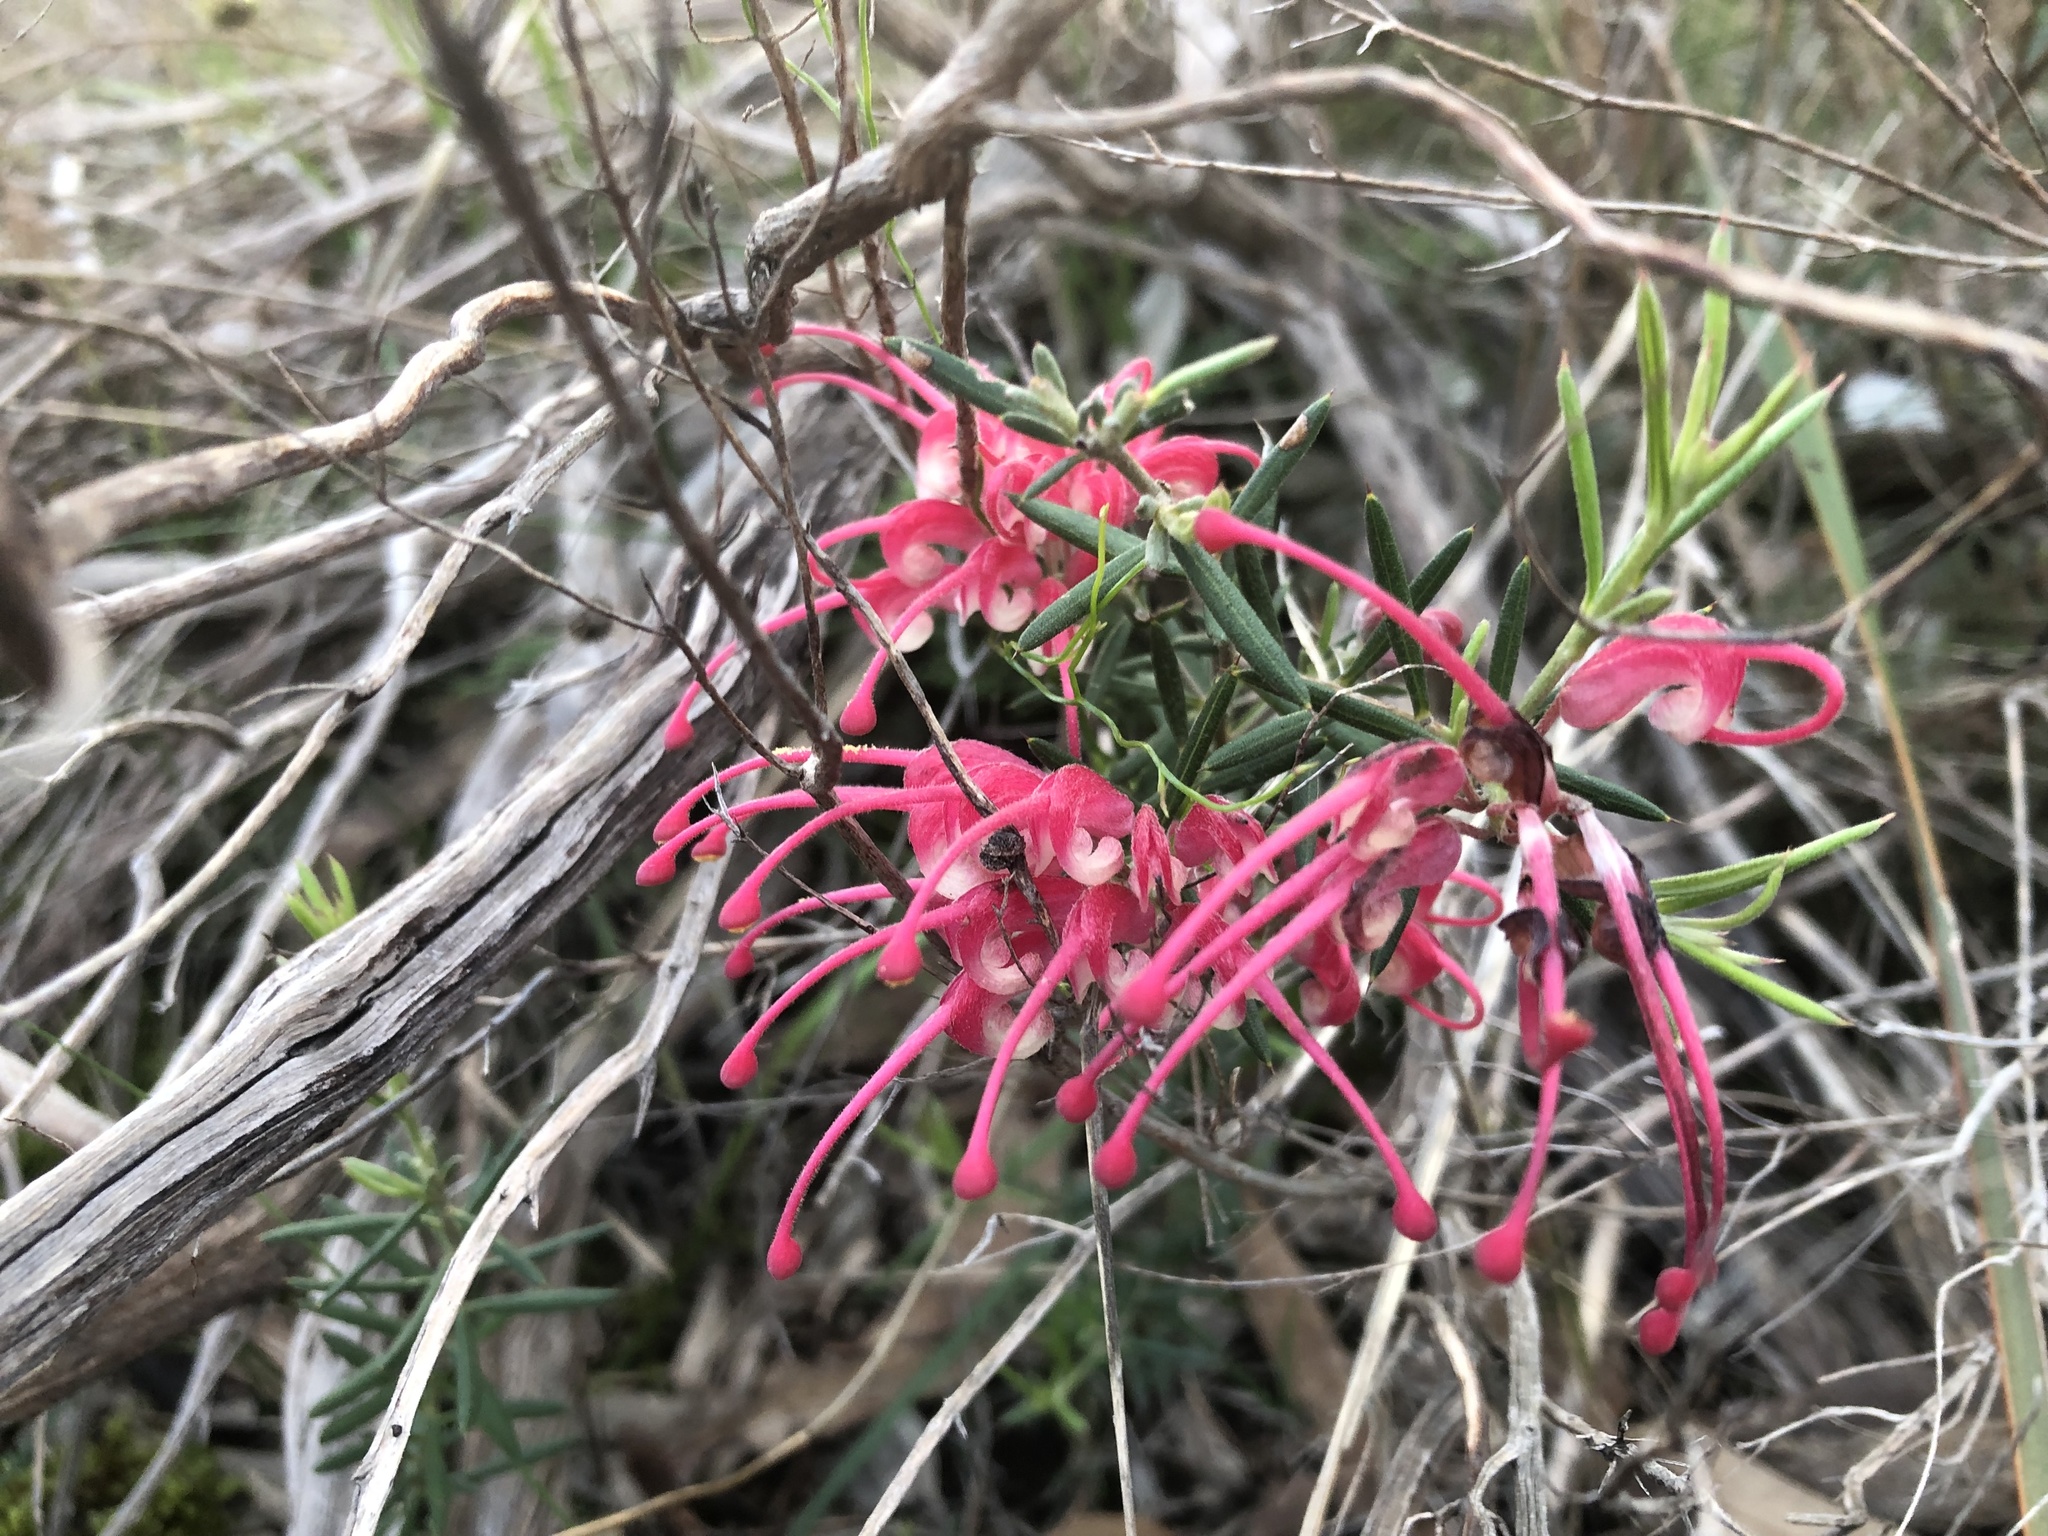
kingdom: Plantae
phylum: Tracheophyta
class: Magnoliopsida
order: Proteales
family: Proteaceae
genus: Grevillea
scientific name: Grevillea lavandulacea
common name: Lavender grevillea
